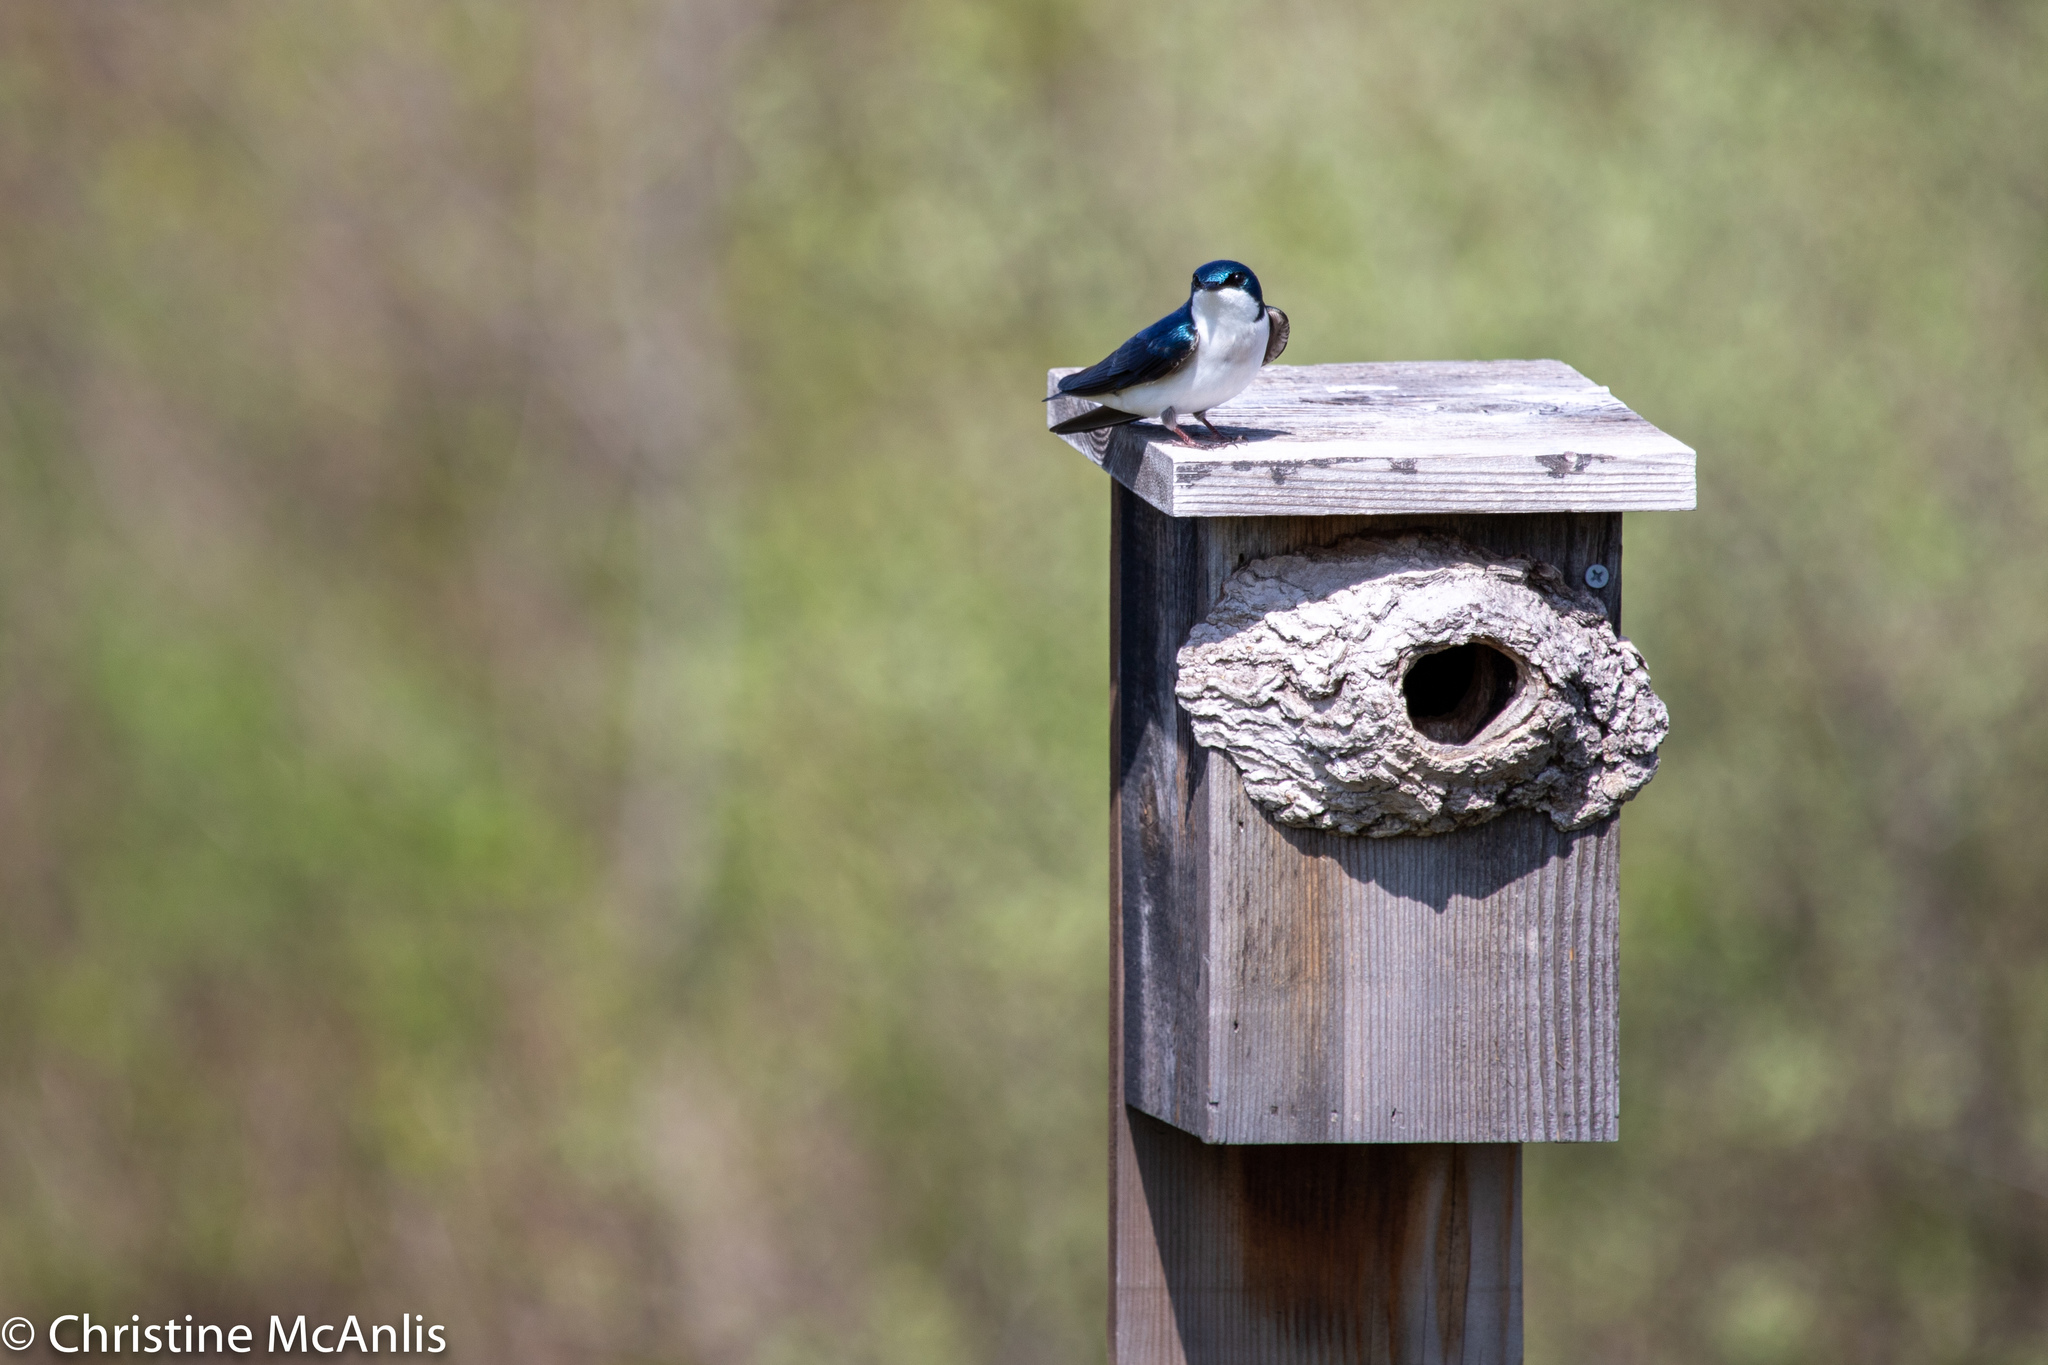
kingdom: Animalia
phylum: Chordata
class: Aves
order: Passeriformes
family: Hirundinidae
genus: Tachycineta
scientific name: Tachycineta bicolor
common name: Tree swallow
